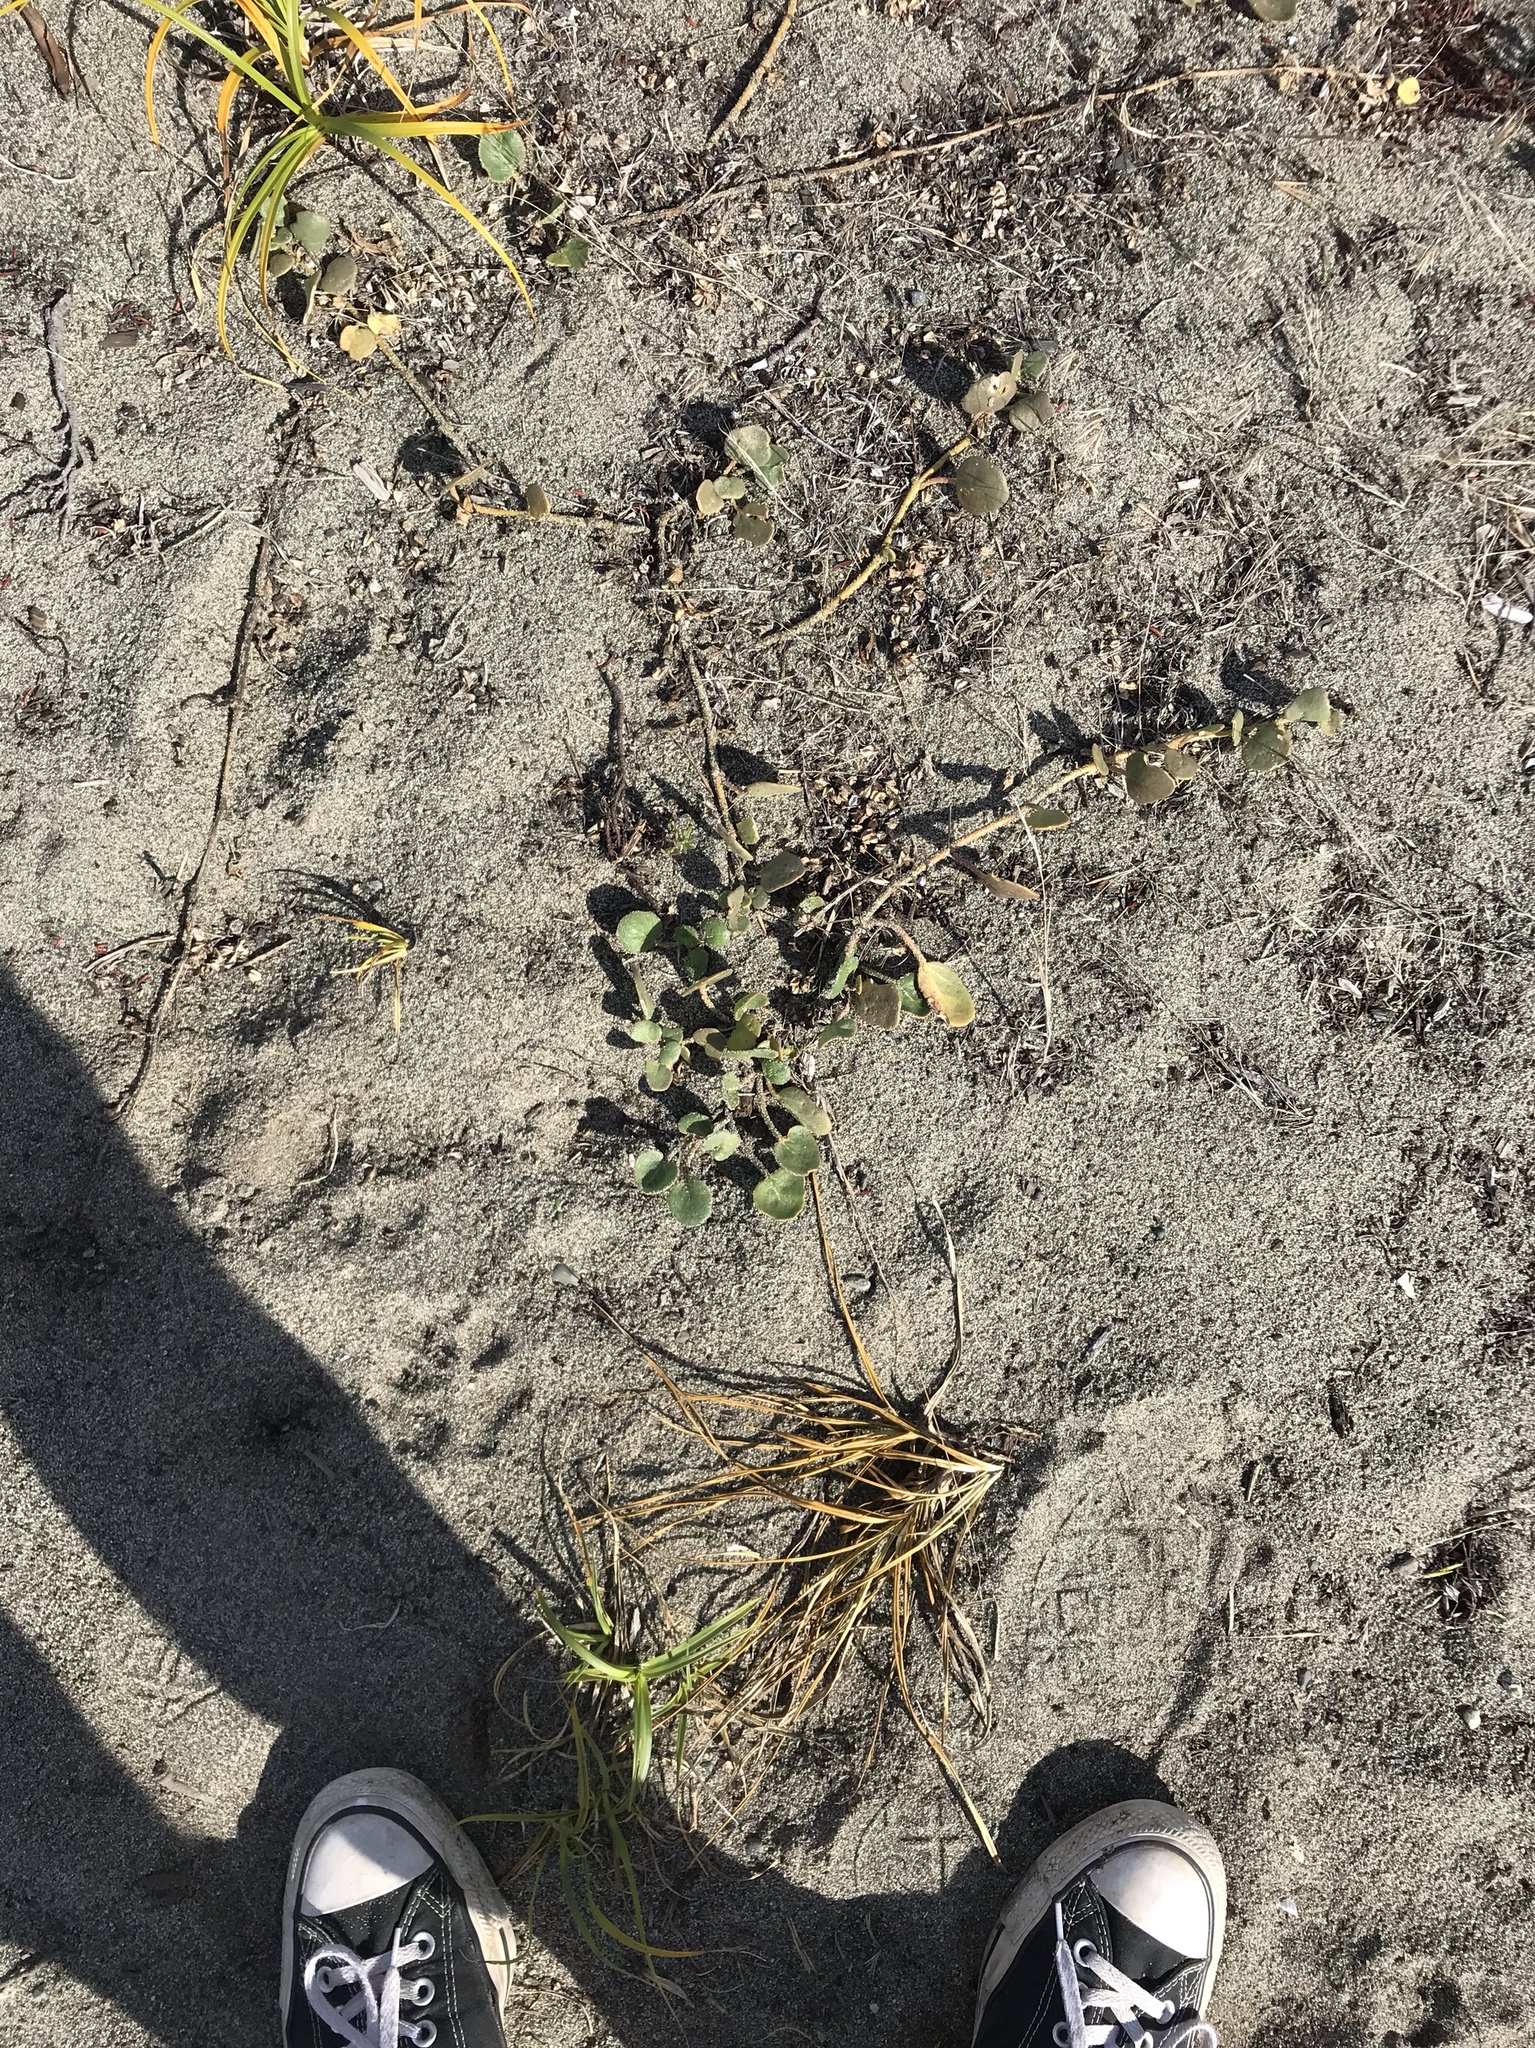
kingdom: Plantae
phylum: Tracheophyta
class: Magnoliopsida
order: Caryophyllales
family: Nyctaginaceae
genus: Abronia
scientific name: Abronia latifolia
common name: Yellow sand-verbena
